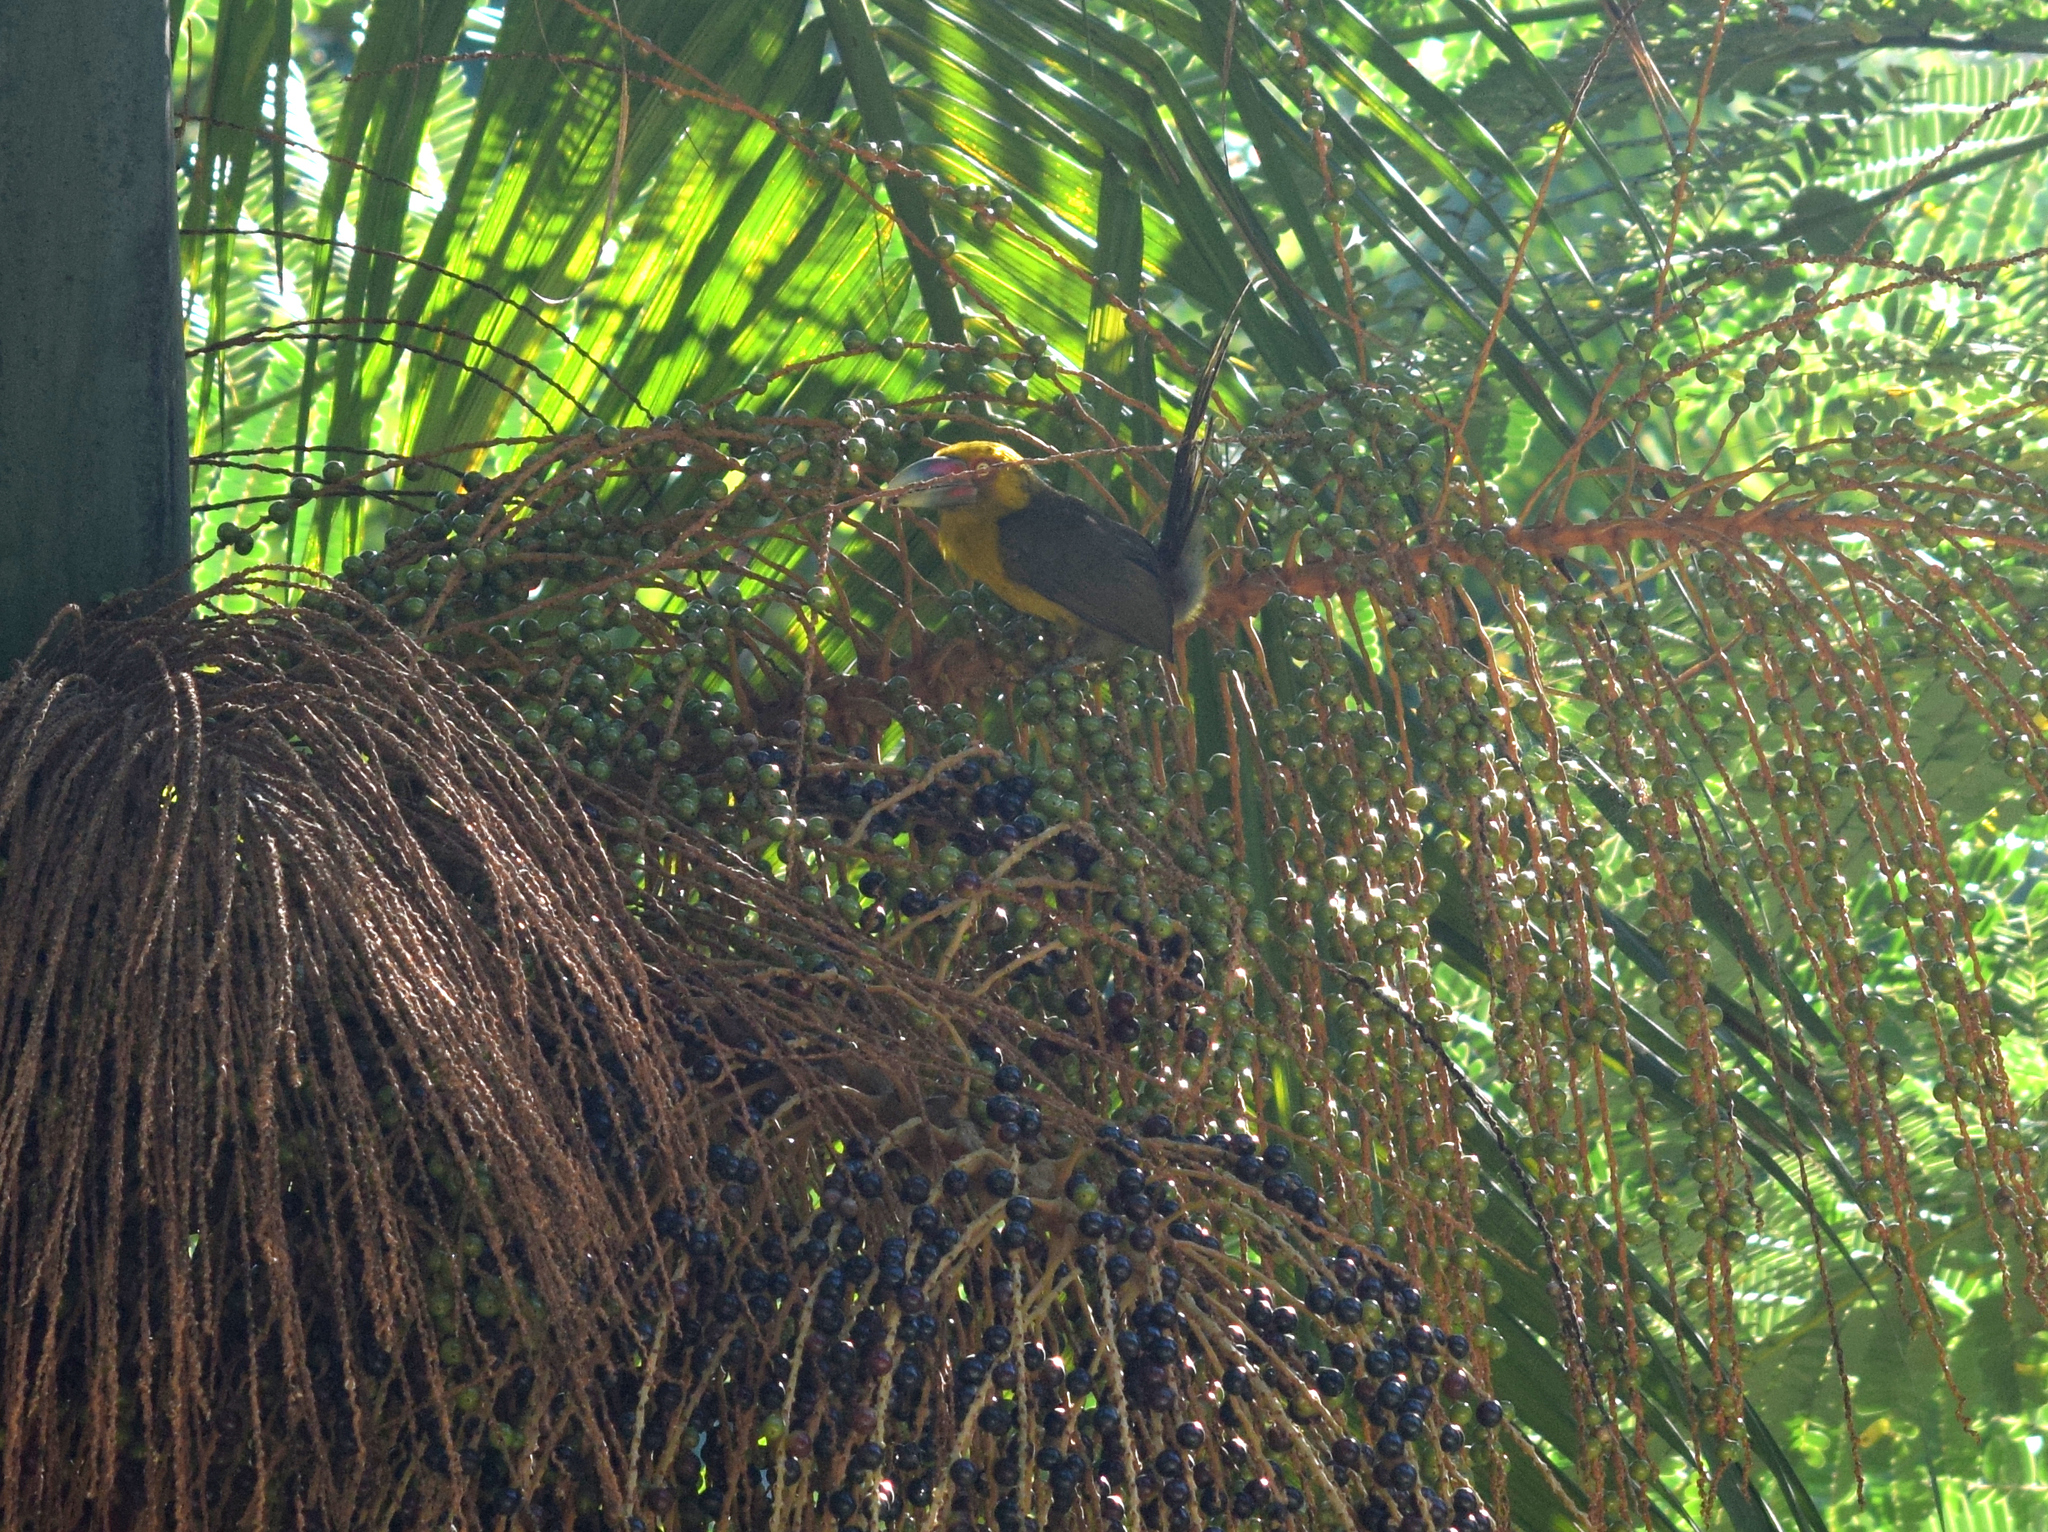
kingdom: Animalia
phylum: Chordata
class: Aves
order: Piciformes
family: Ramphastidae
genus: Pteroglossus
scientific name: Pteroglossus bailloni
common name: Saffron toucanet
